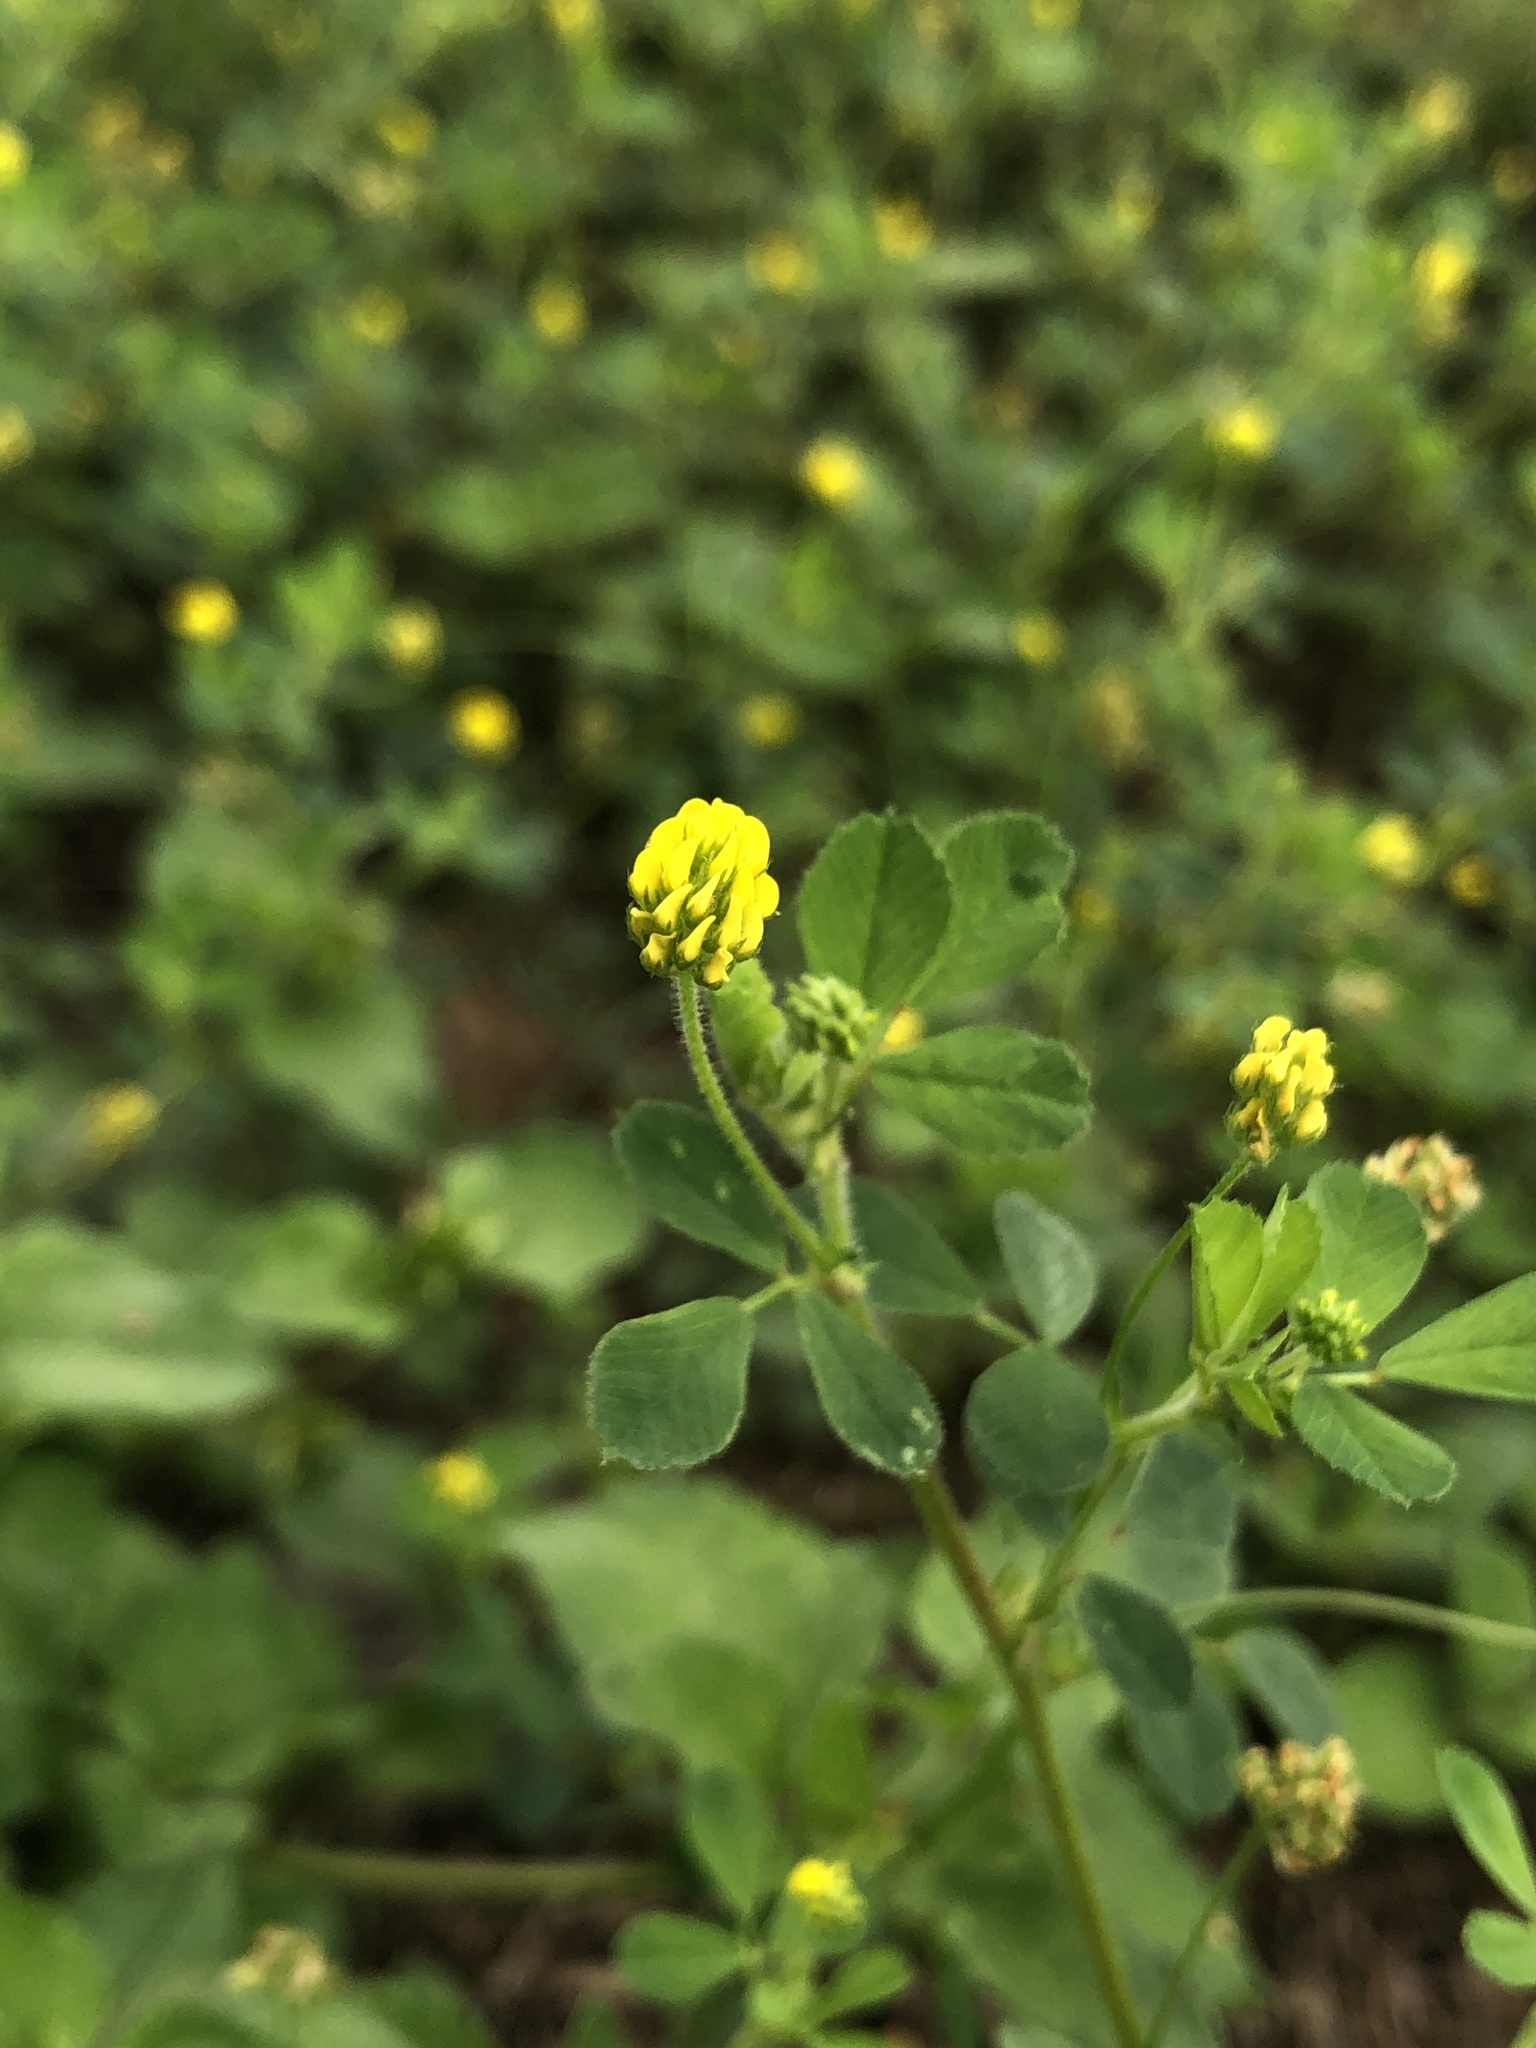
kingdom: Plantae
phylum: Tracheophyta
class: Magnoliopsida
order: Fabales
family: Fabaceae
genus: Medicago
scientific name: Medicago lupulina
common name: Black medick
